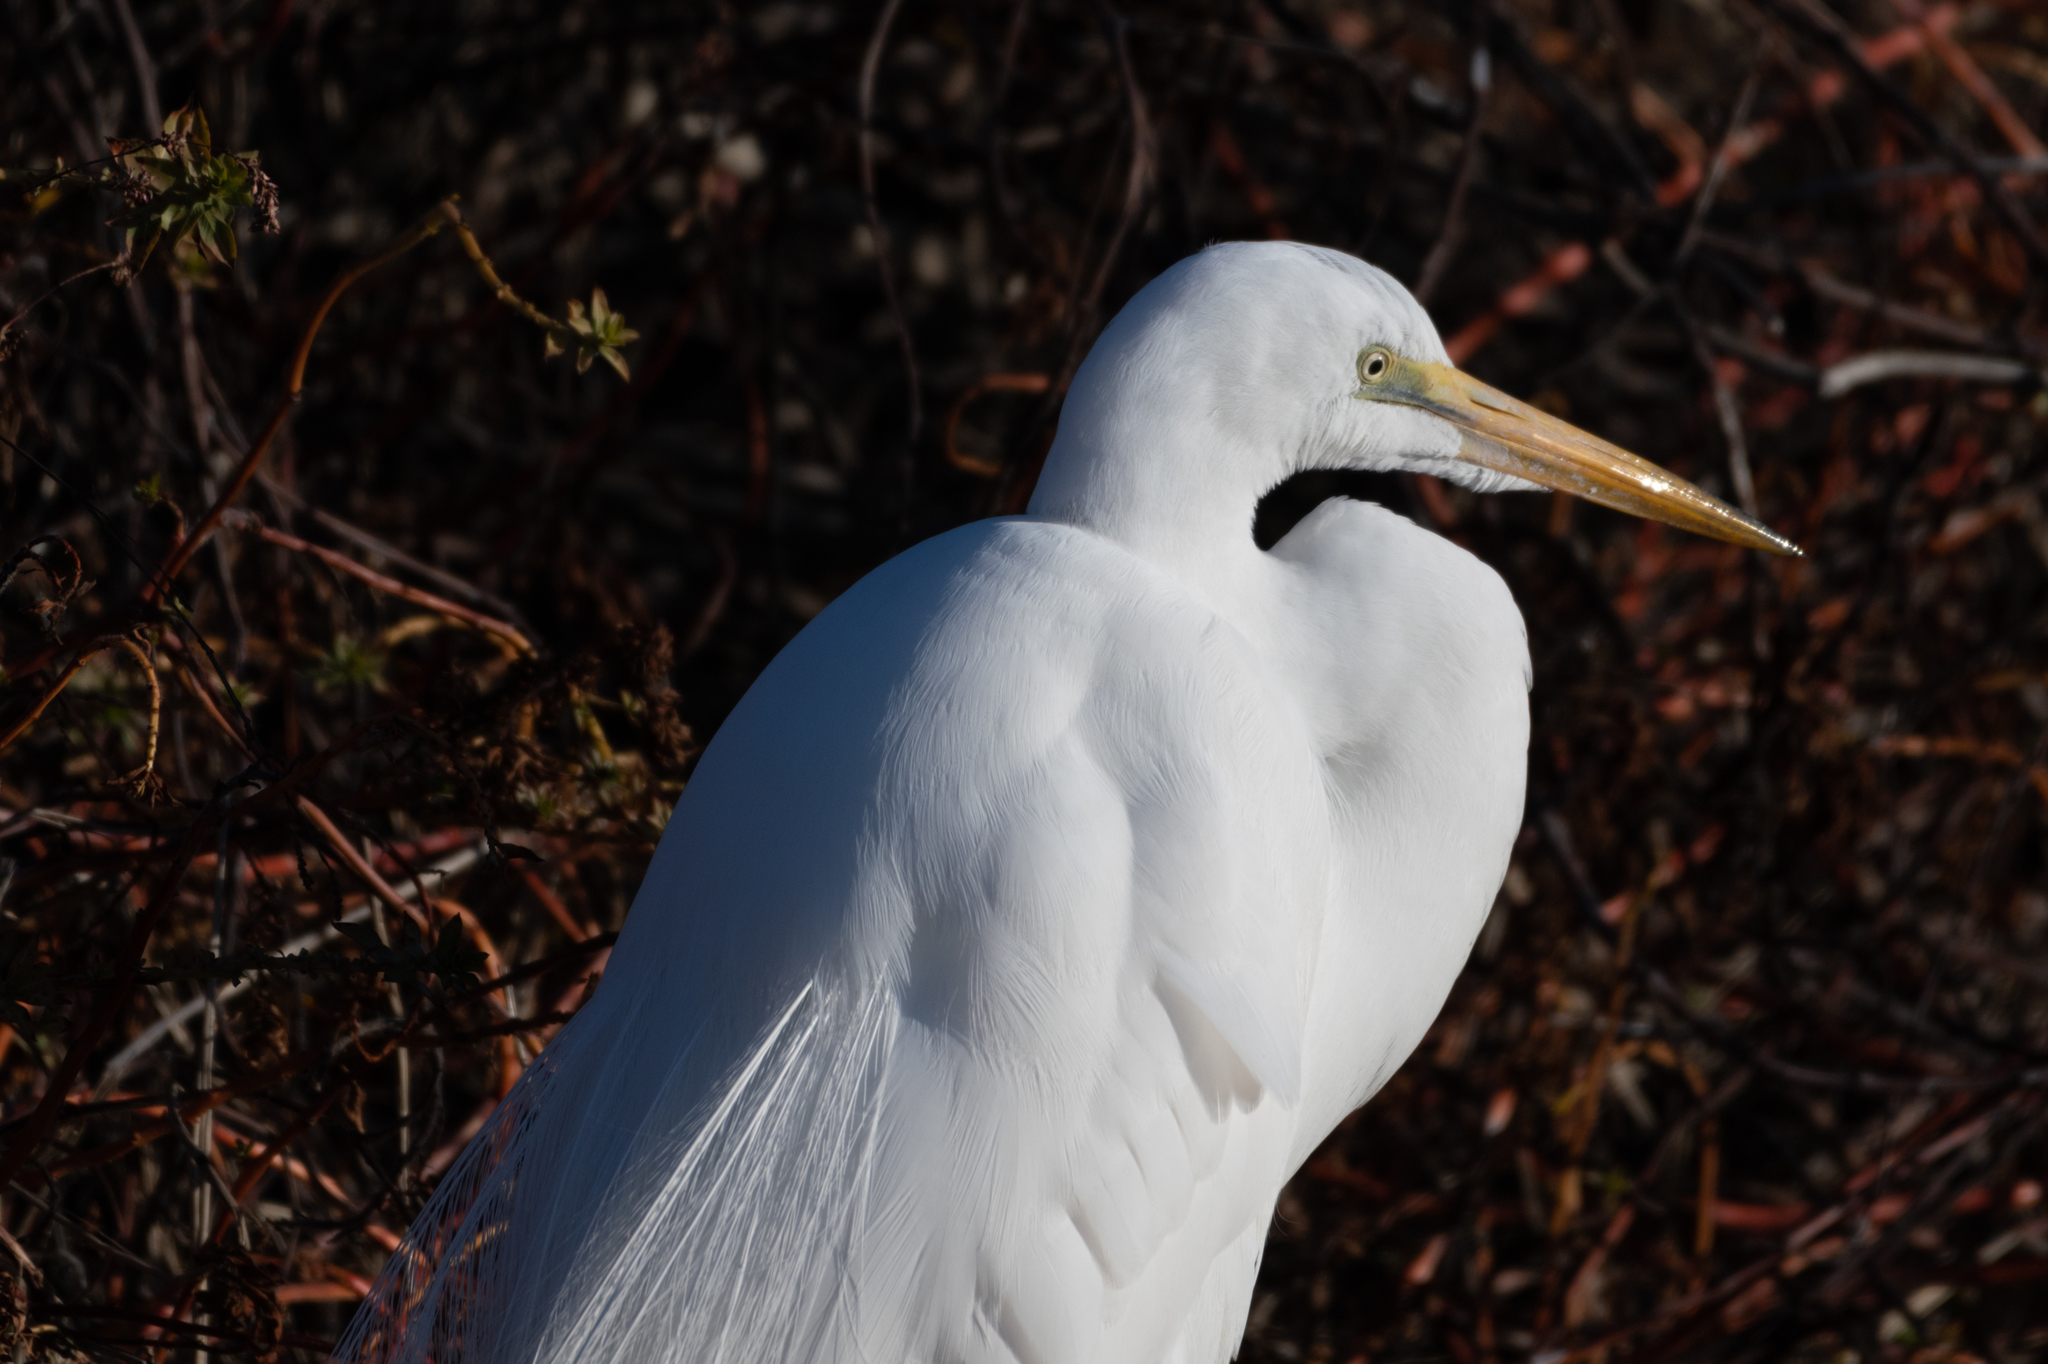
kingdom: Animalia
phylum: Chordata
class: Aves
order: Pelecaniformes
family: Ardeidae
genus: Ardea
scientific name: Ardea alba
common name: Great egret
